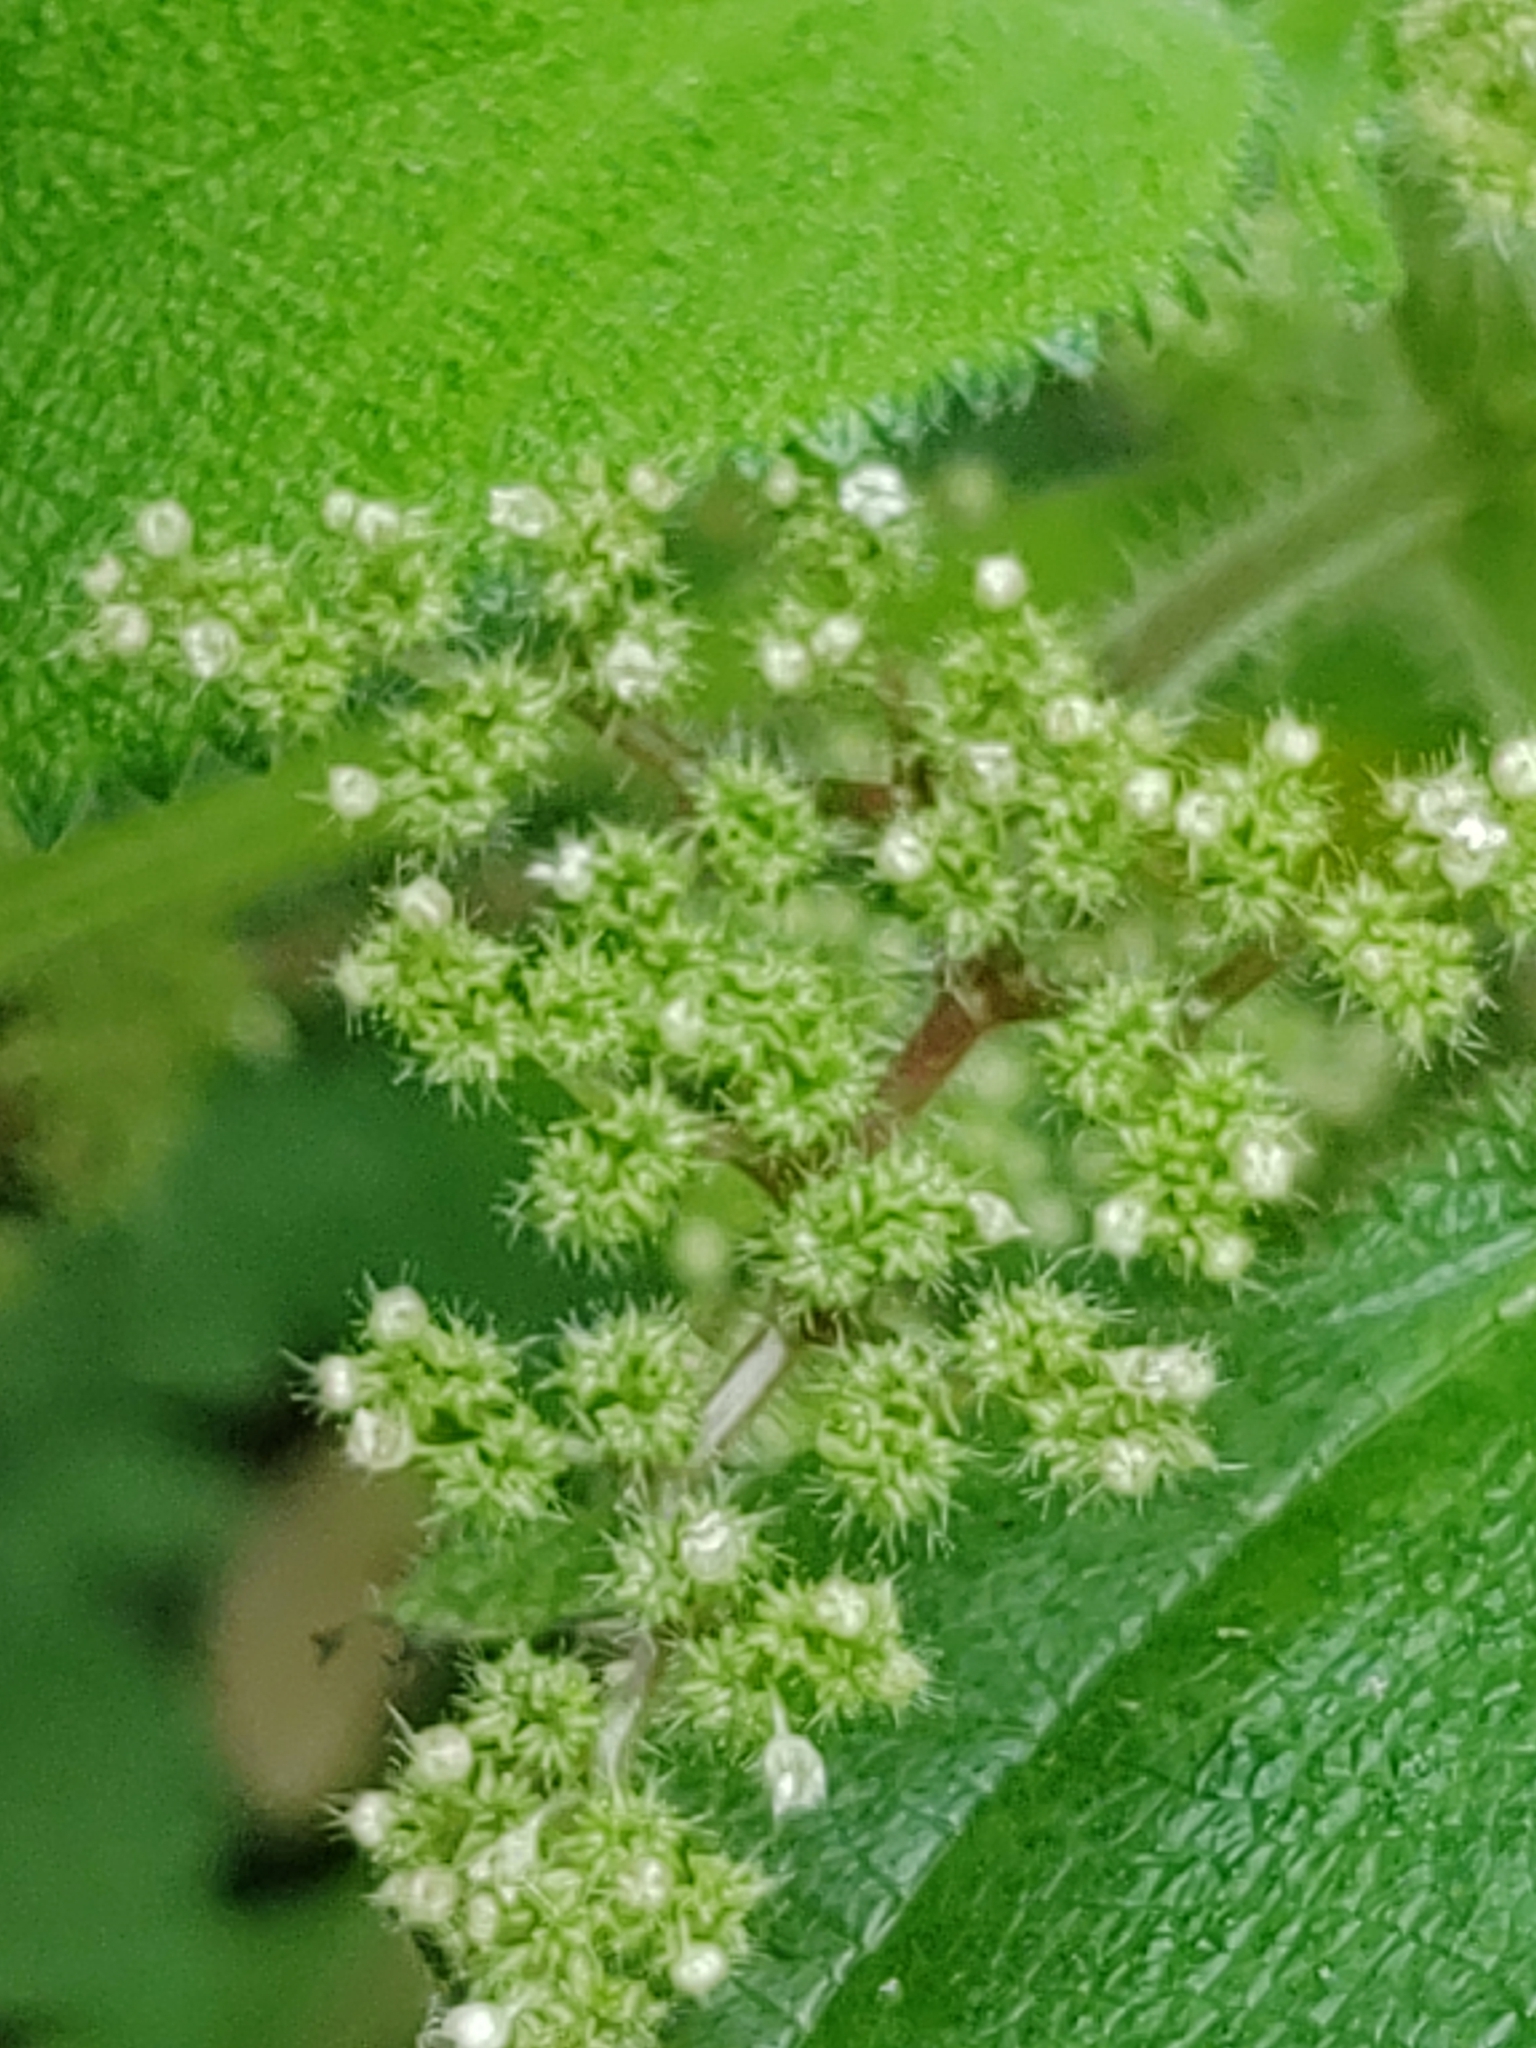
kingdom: Plantae
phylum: Tracheophyta
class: Magnoliopsida
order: Rosales
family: Urticaceae
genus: Laportea
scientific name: Laportea aestuans
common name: West indian woodnettle
